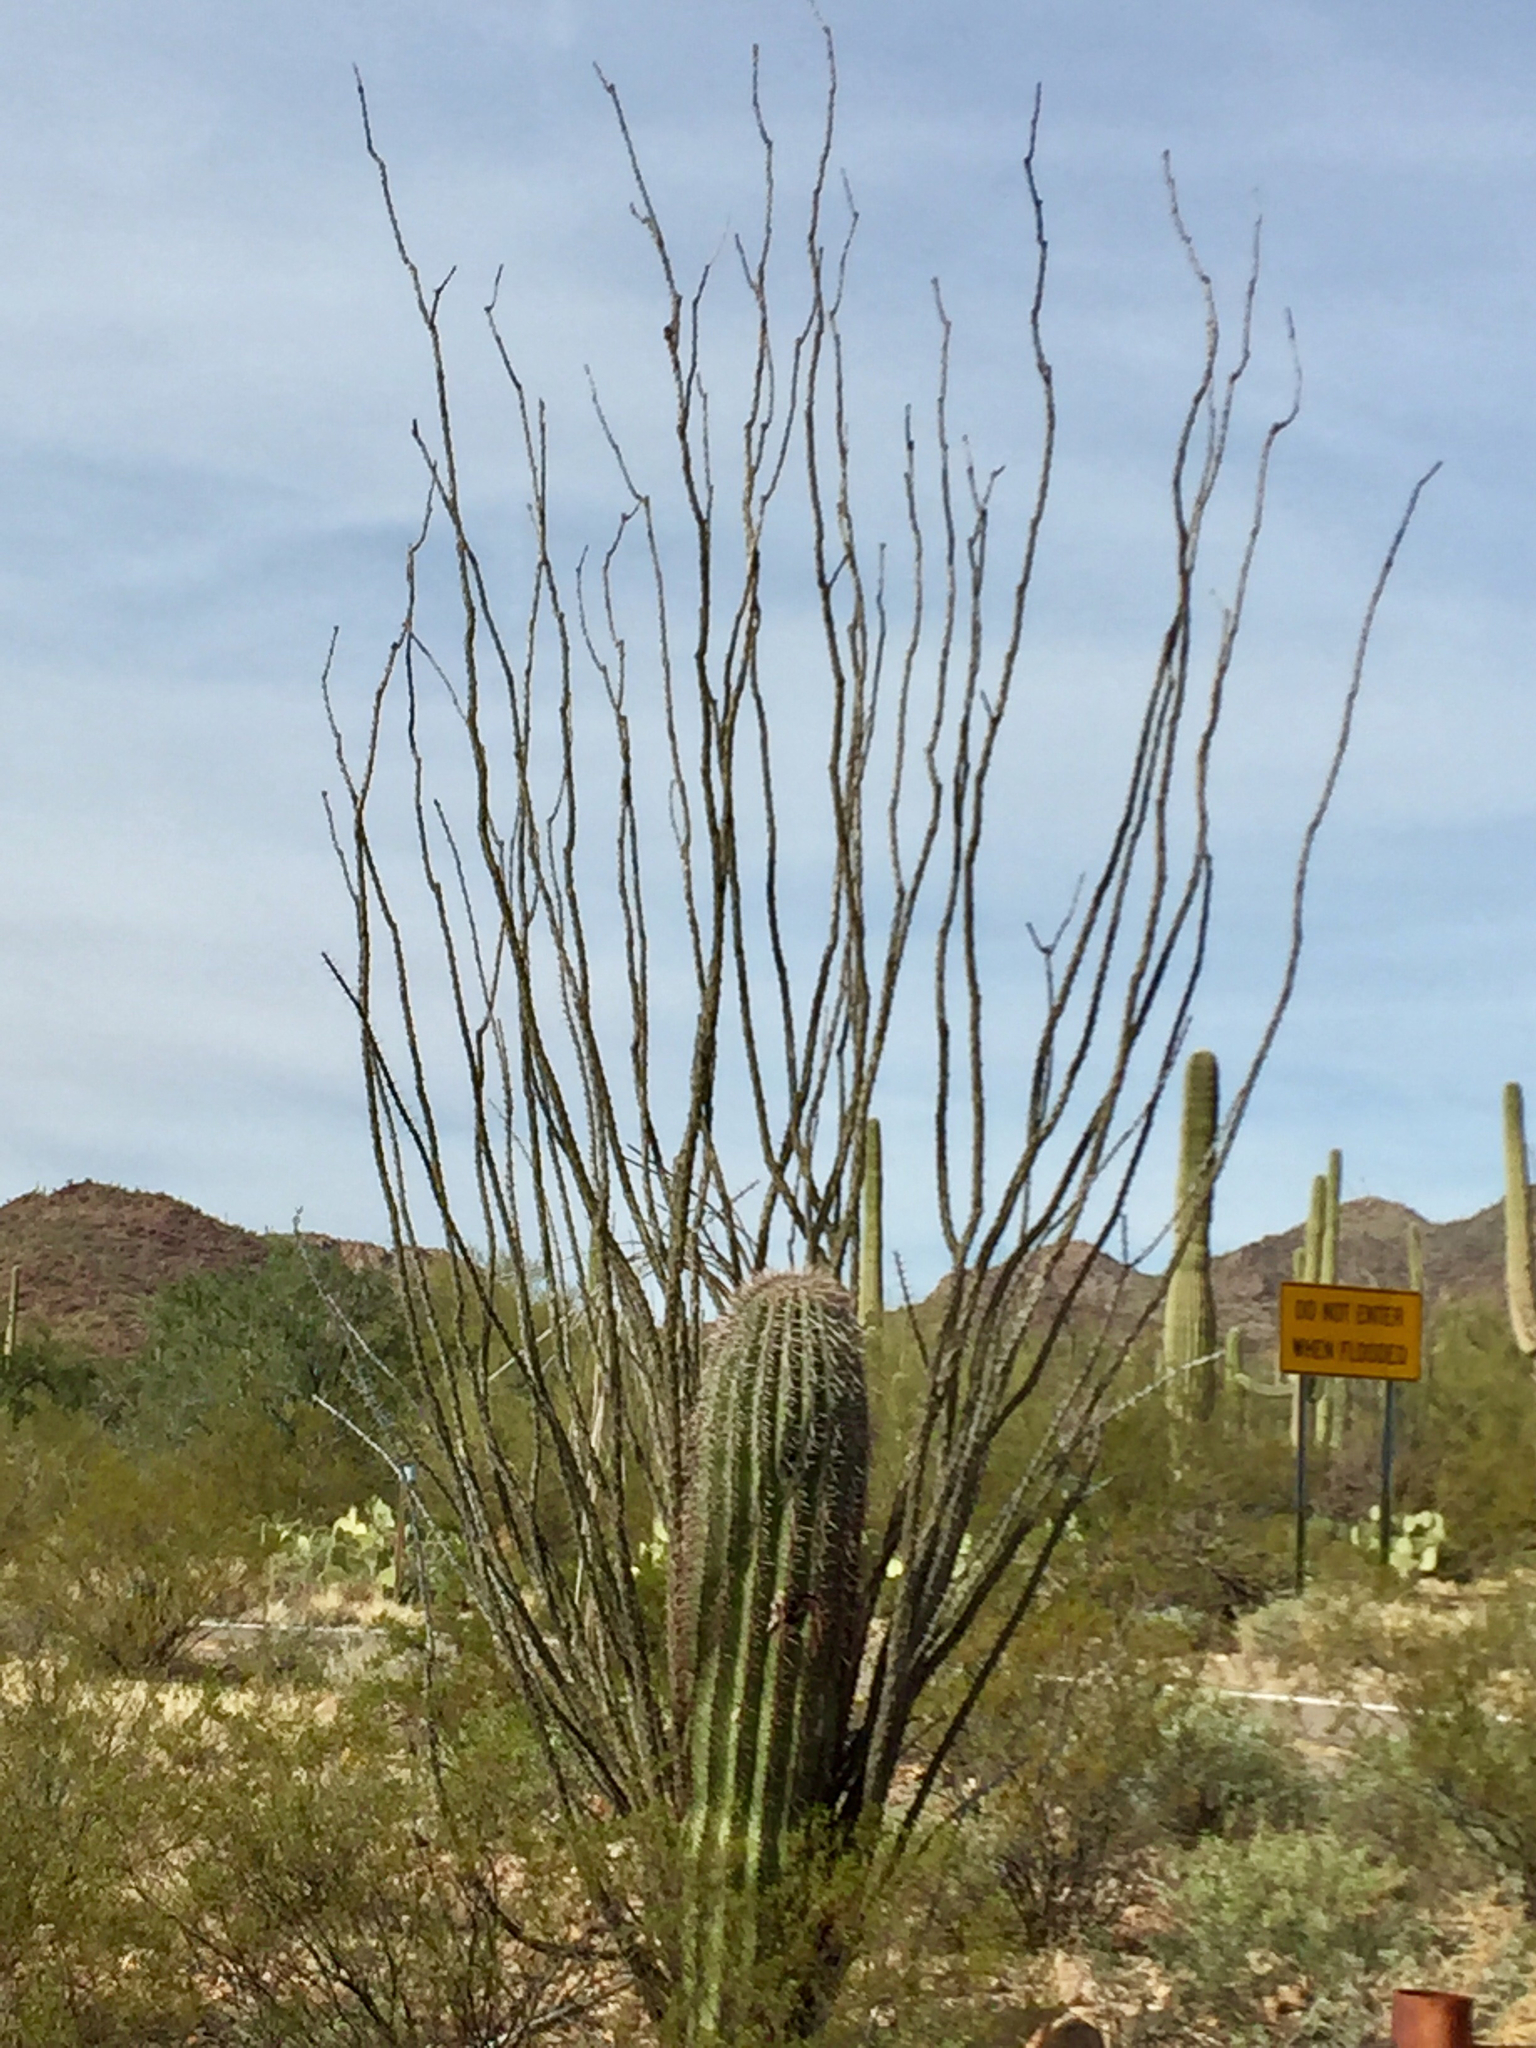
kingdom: Plantae
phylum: Tracheophyta
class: Magnoliopsida
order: Ericales
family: Fouquieriaceae
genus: Fouquieria
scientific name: Fouquieria splendens
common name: Vine-cactus
